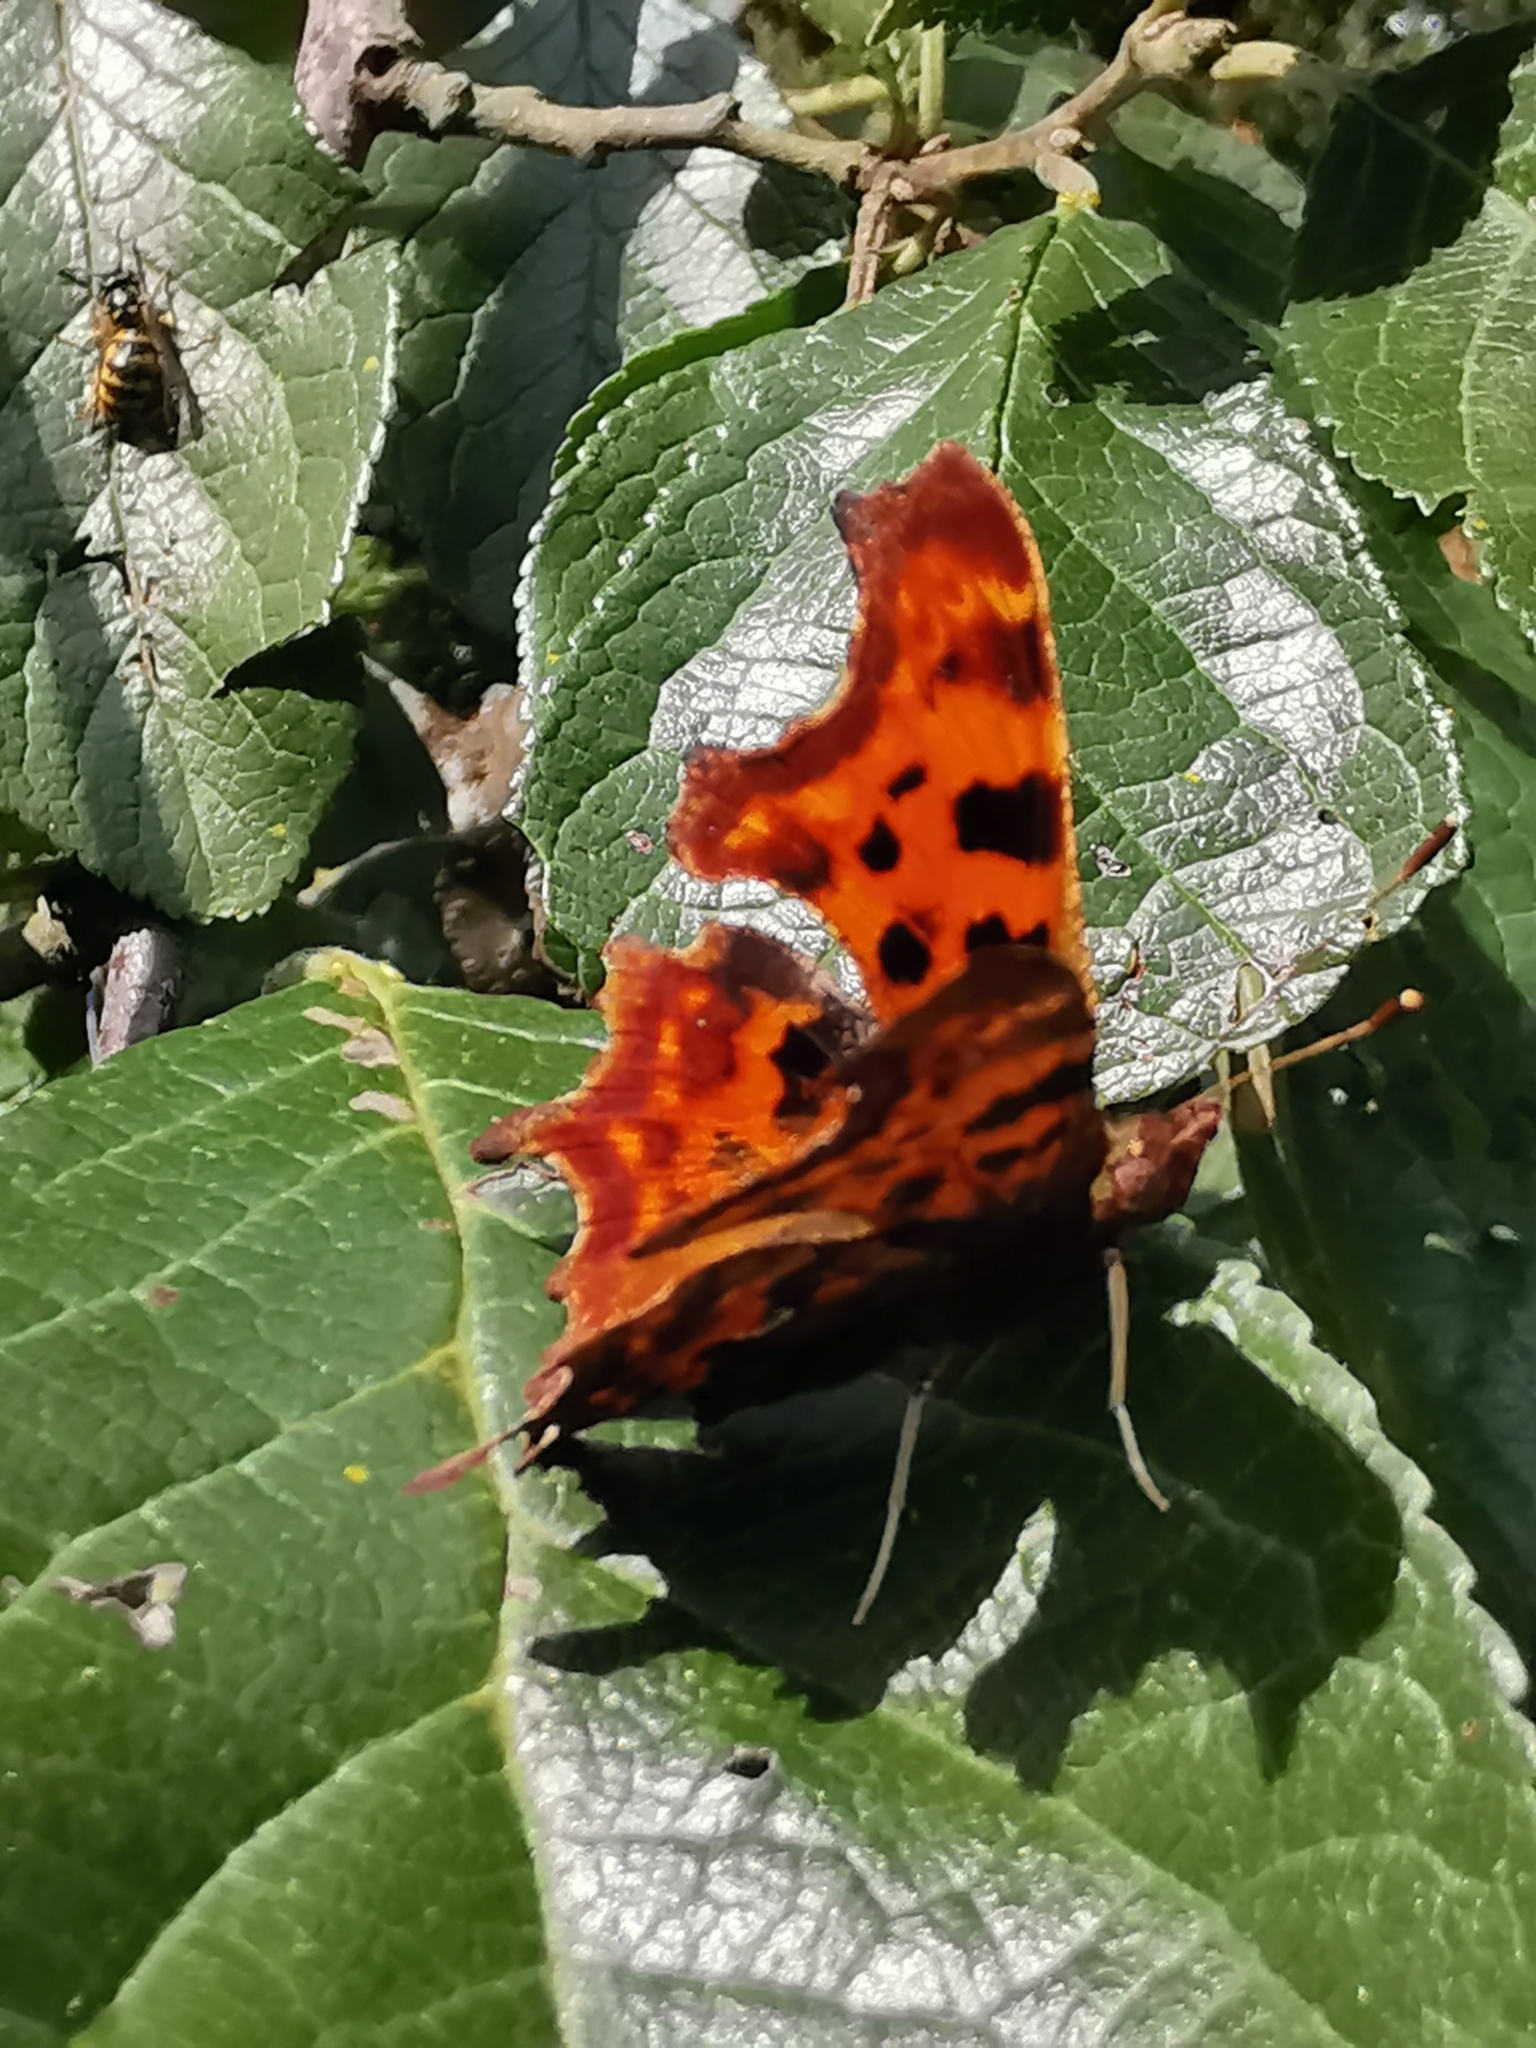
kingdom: Animalia
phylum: Arthropoda
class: Insecta
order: Lepidoptera
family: Nymphalidae
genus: Polygonia
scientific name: Polygonia c-album
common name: Comma
